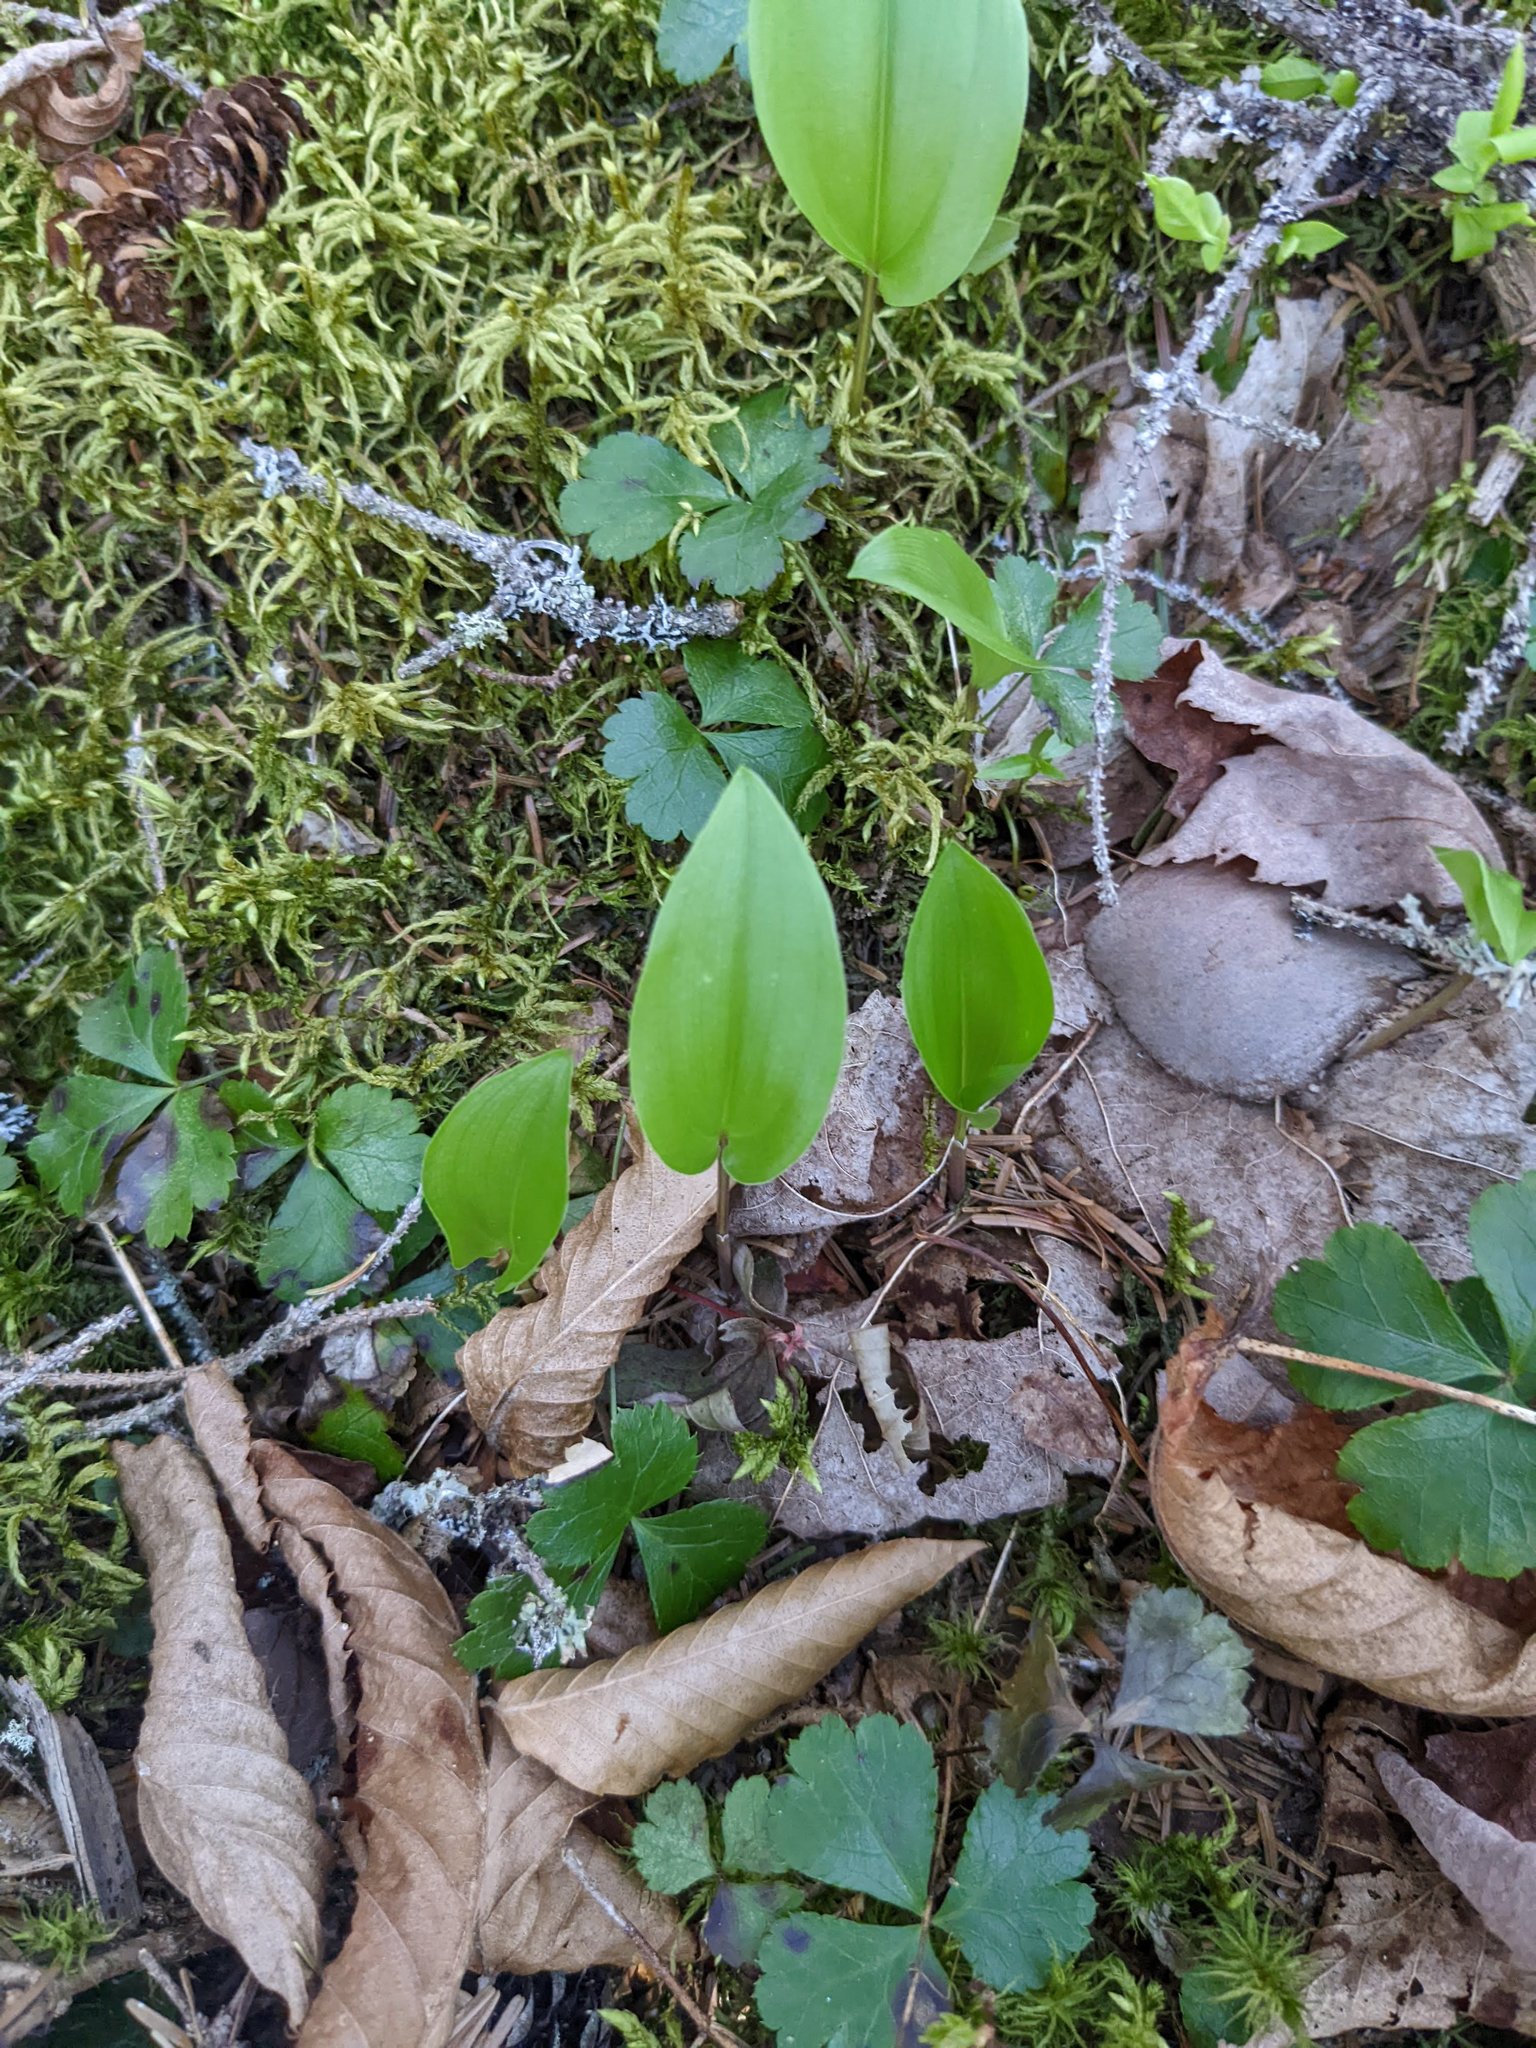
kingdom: Plantae
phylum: Tracheophyta
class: Liliopsida
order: Asparagales
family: Asparagaceae
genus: Maianthemum
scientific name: Maianthemum canadense
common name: False lily-of-the-valley
